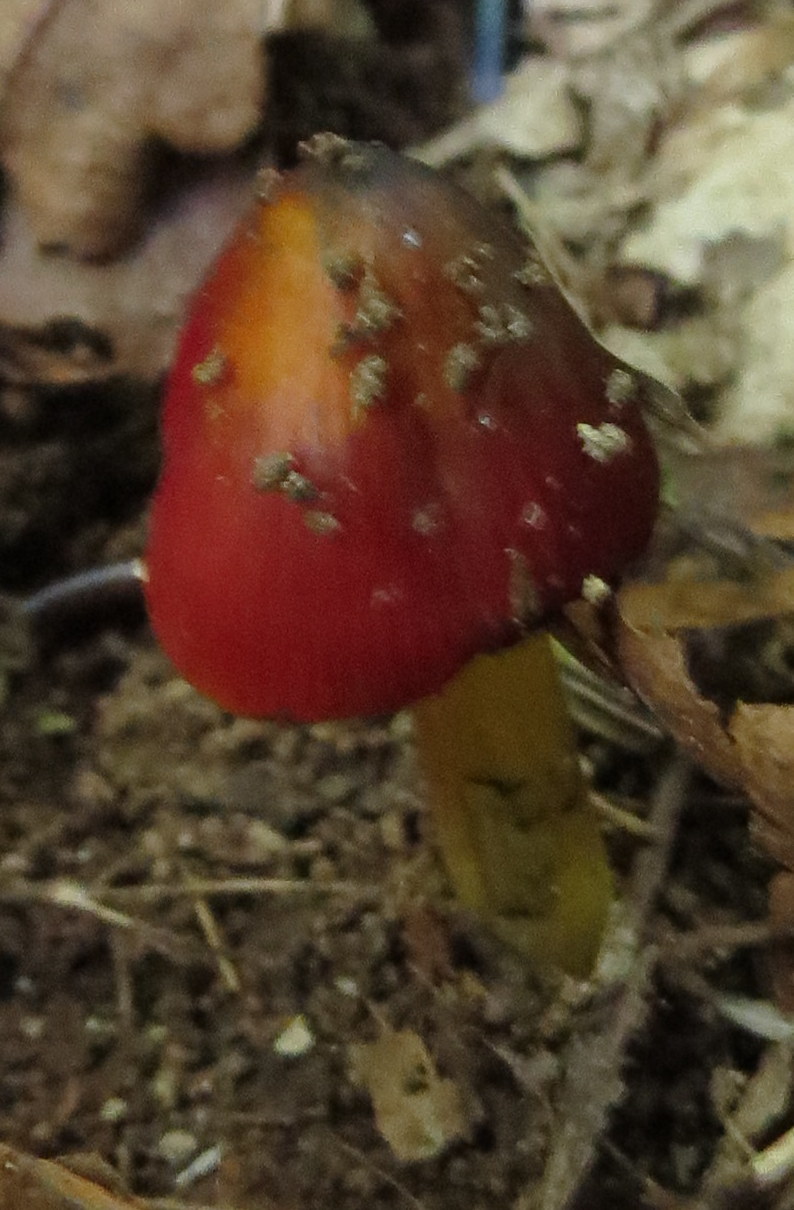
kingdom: Fungi
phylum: Basidiomycota
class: Agaricomycetes
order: Agaricales
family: Hygrophoraceae
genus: Hygrocybe
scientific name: Hygrocybe conica
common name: Blackening wax-cap
